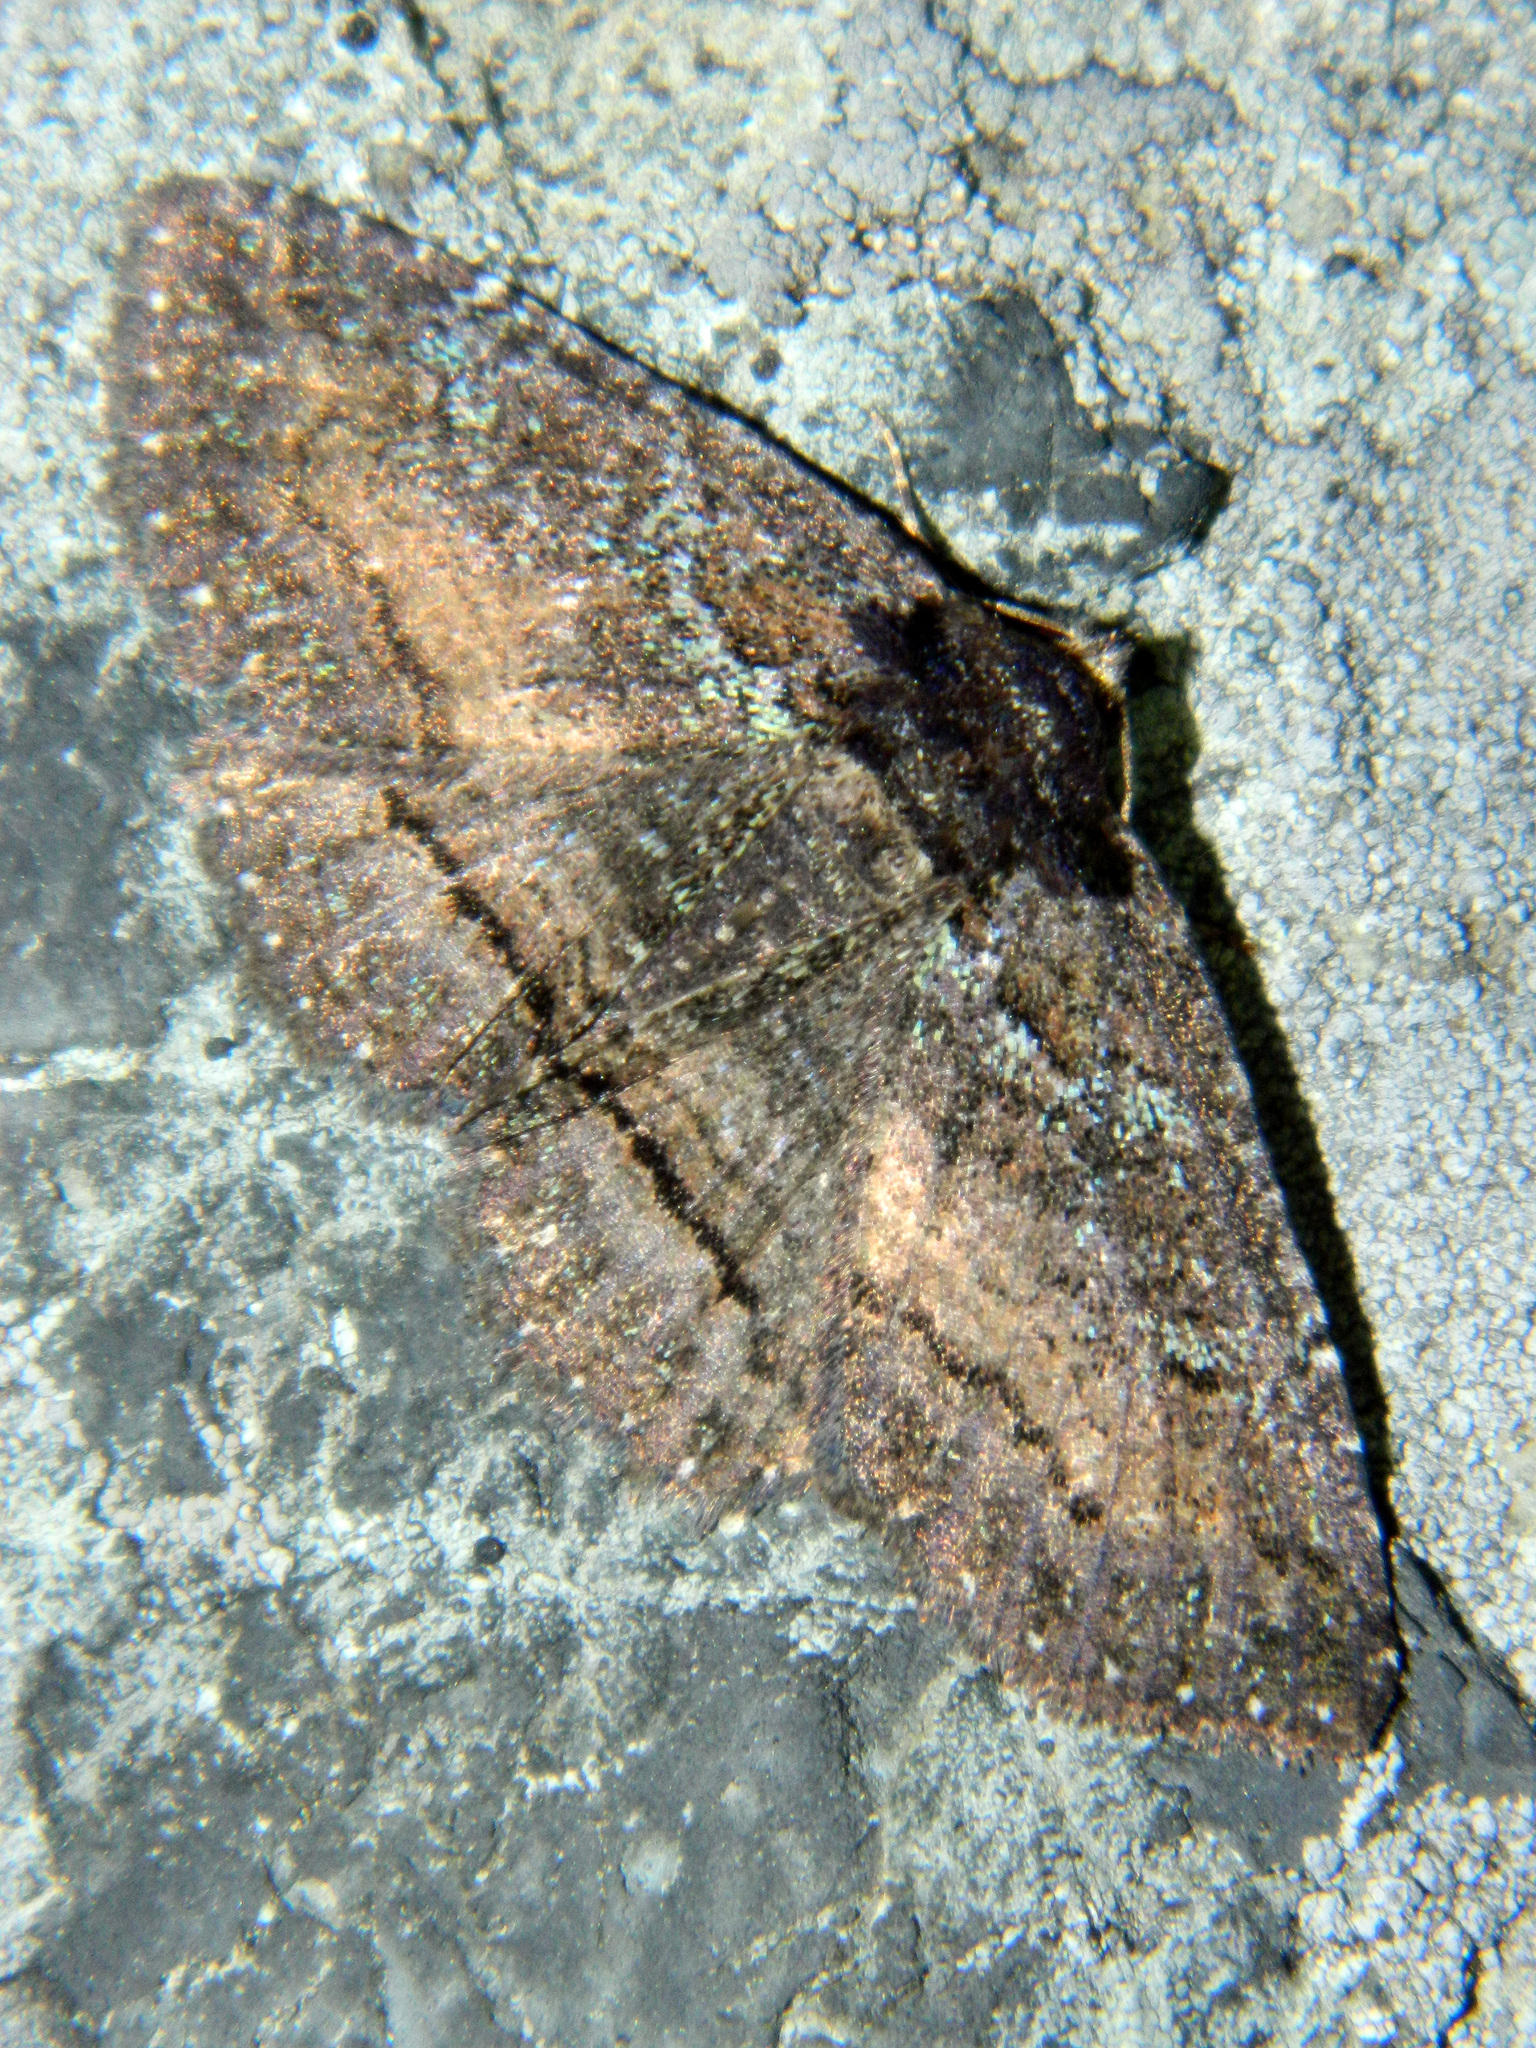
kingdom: Animalia
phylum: Arthropoda
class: Insecta
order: Lepidoptera
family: Erebidae
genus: Zale
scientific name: Zale aeruginosa
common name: Green-dusted zale moth
